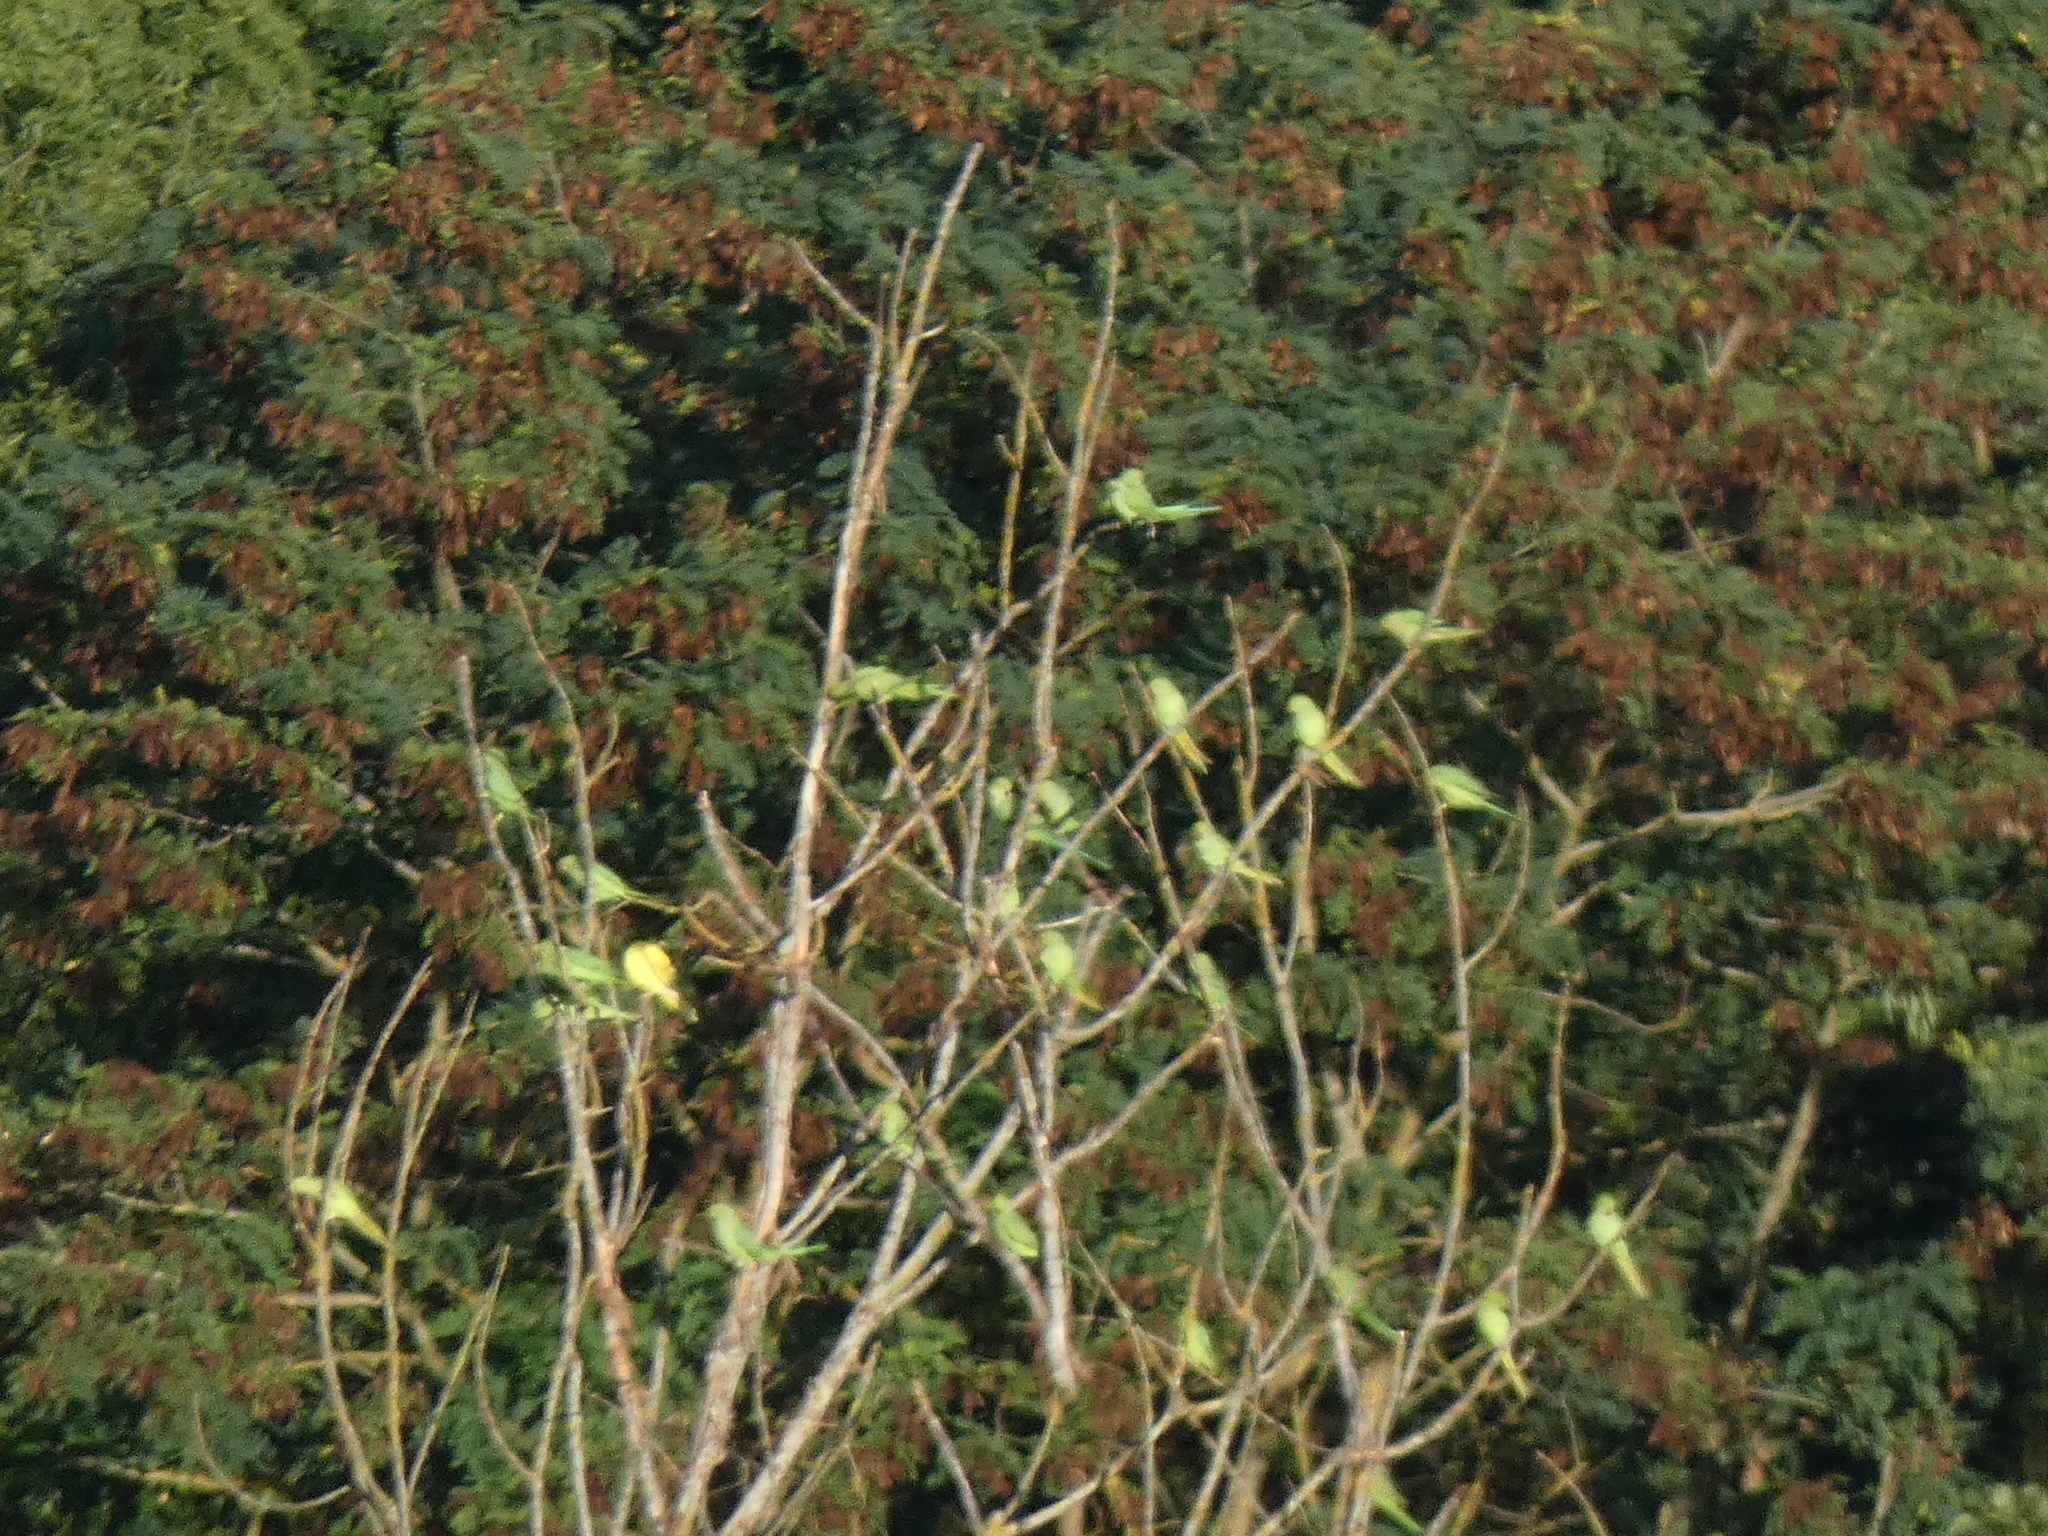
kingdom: Animalia
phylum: Chordata
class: Aves
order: Psittaciformes
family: Psittacidae
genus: Psittacula
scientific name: Psittacula krameri
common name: Rose-ringed parakeet
